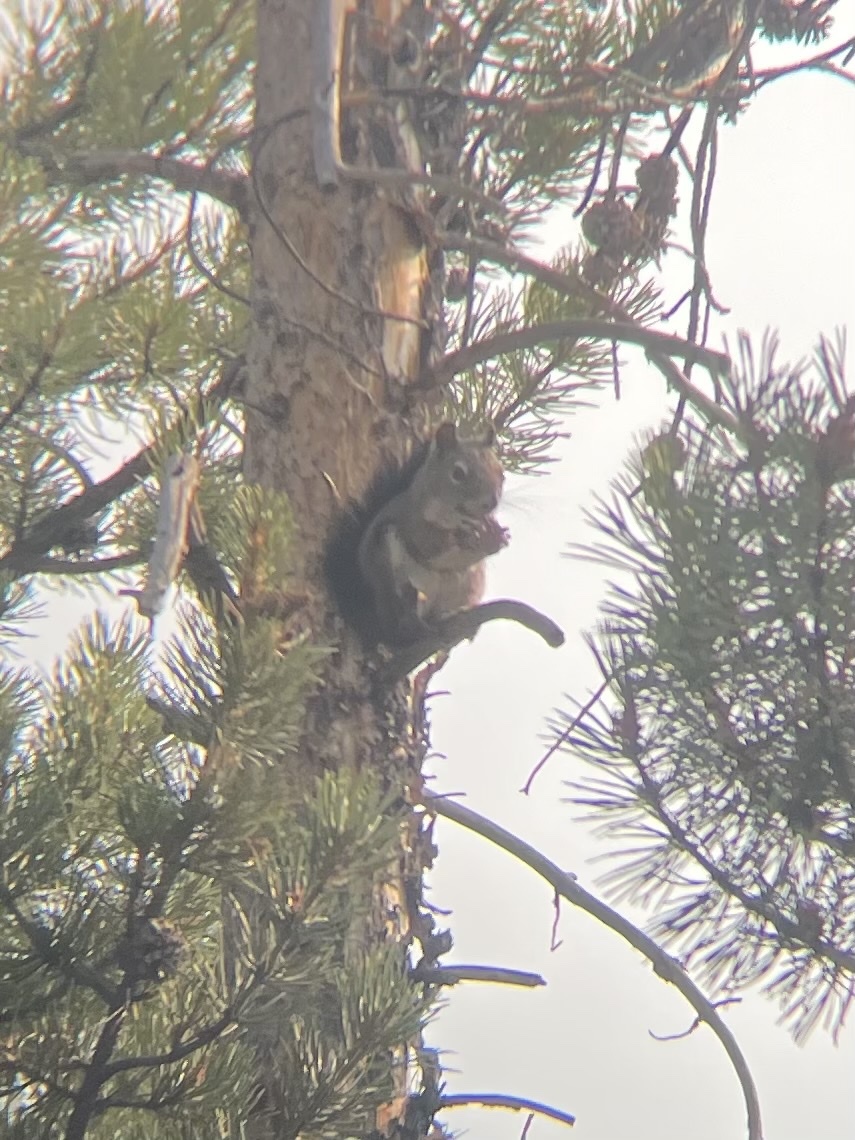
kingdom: Animalia
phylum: Chordata
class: Mammalia
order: Rodentia
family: Sciuridae
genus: Tamiasciurus
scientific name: Tamiasciurus hudsonicus
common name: Red squirrel
